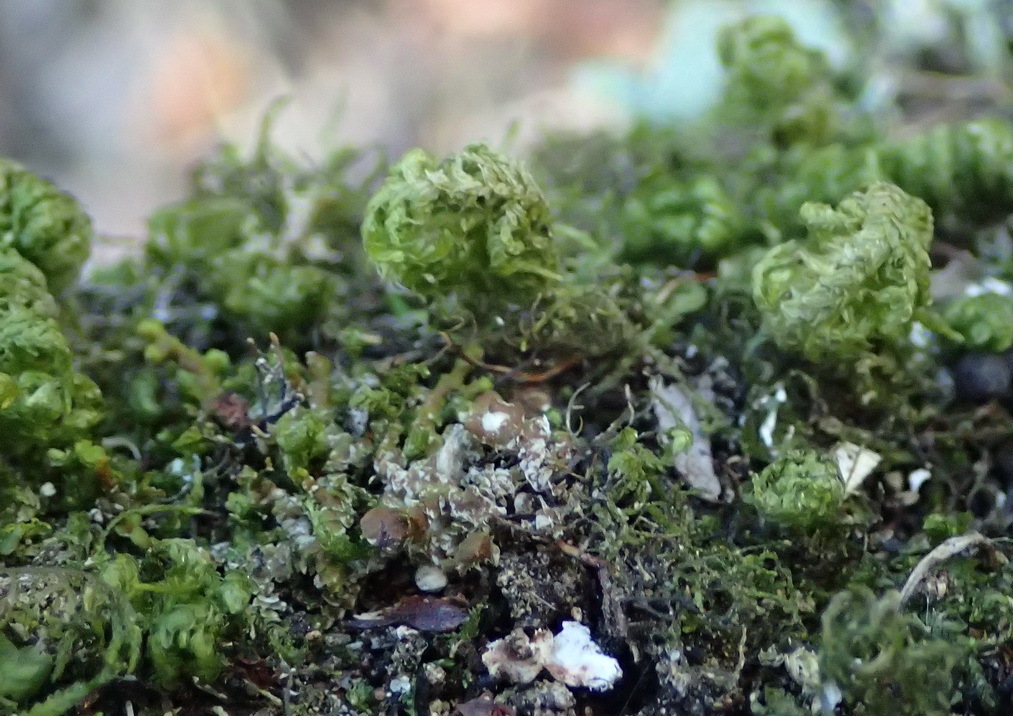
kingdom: Plantae
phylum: Bryophyta
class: Bryopsida
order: Hypnales
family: Neckeraceae
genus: Leptodon
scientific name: Leptodon smithii
